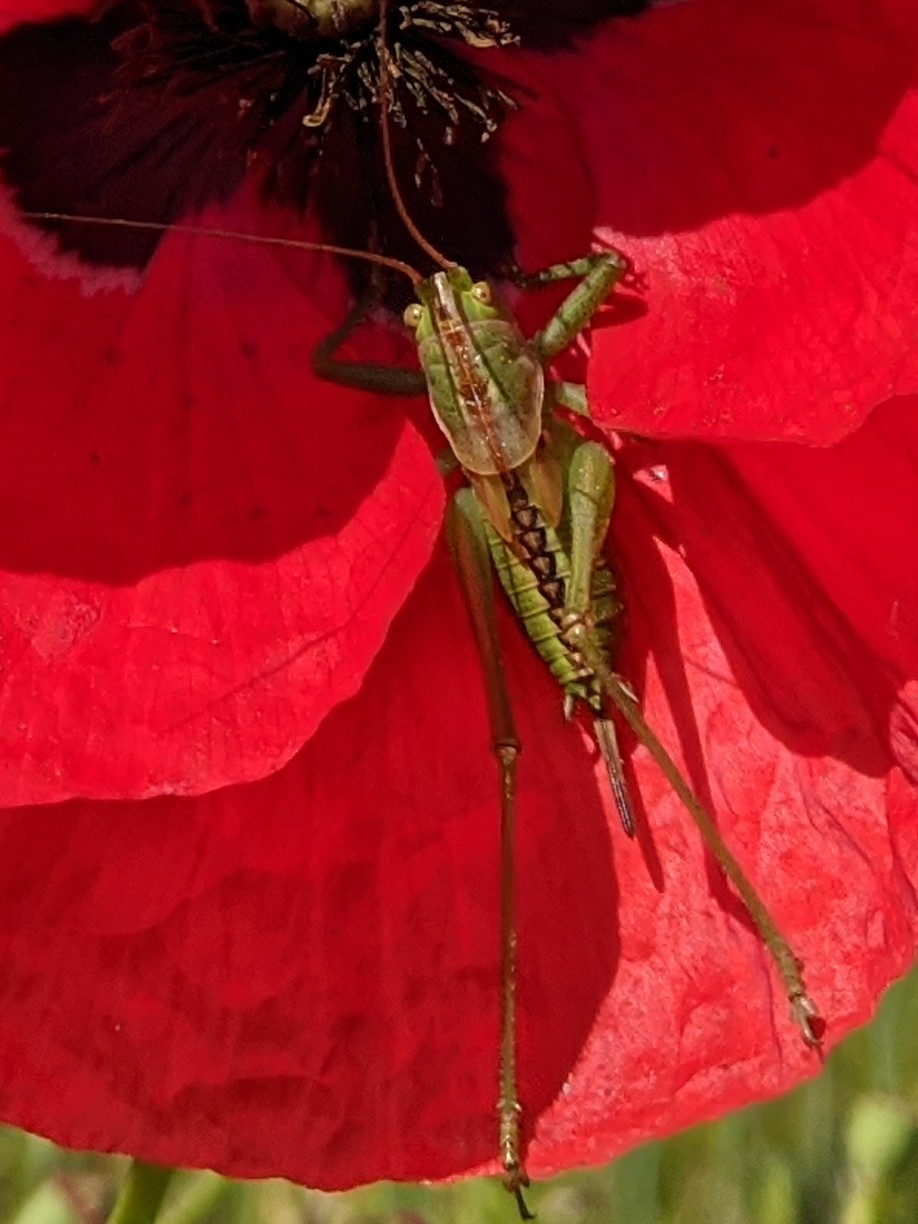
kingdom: Animalia
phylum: Arthropoda
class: Insecta
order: Orthoptera
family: Tettigoniidae
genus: Tettigonia
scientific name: Tettigonia viridissima
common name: Great green bush-cricket
